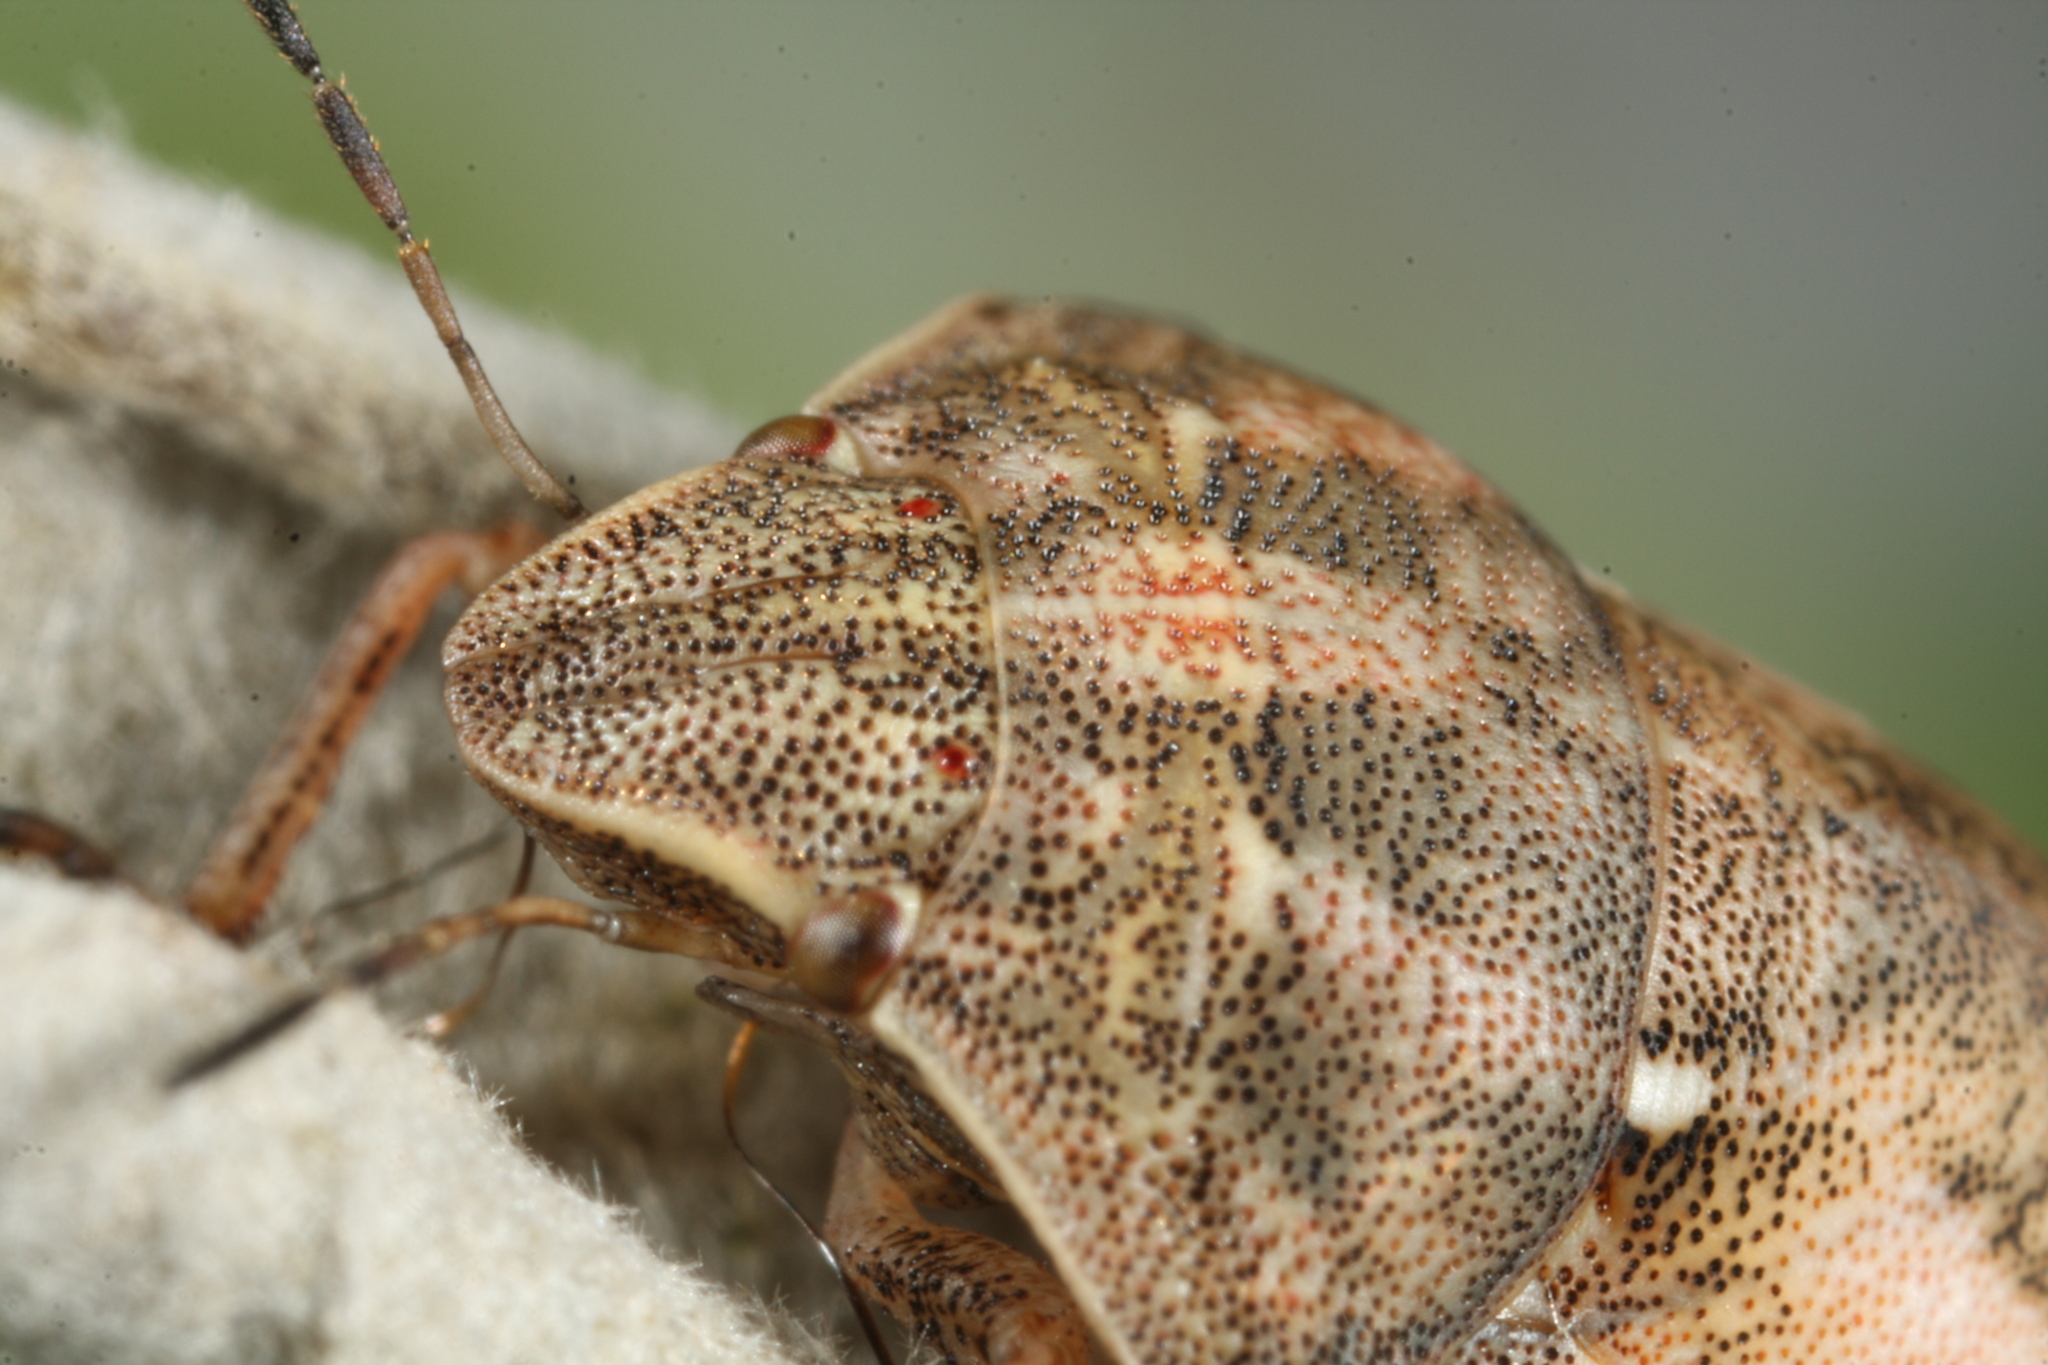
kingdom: Animalia
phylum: Arthropoda
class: Insecta
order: Hemiptera
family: Scutelleridae
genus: Eurygaster
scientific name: Eurygaster maura
